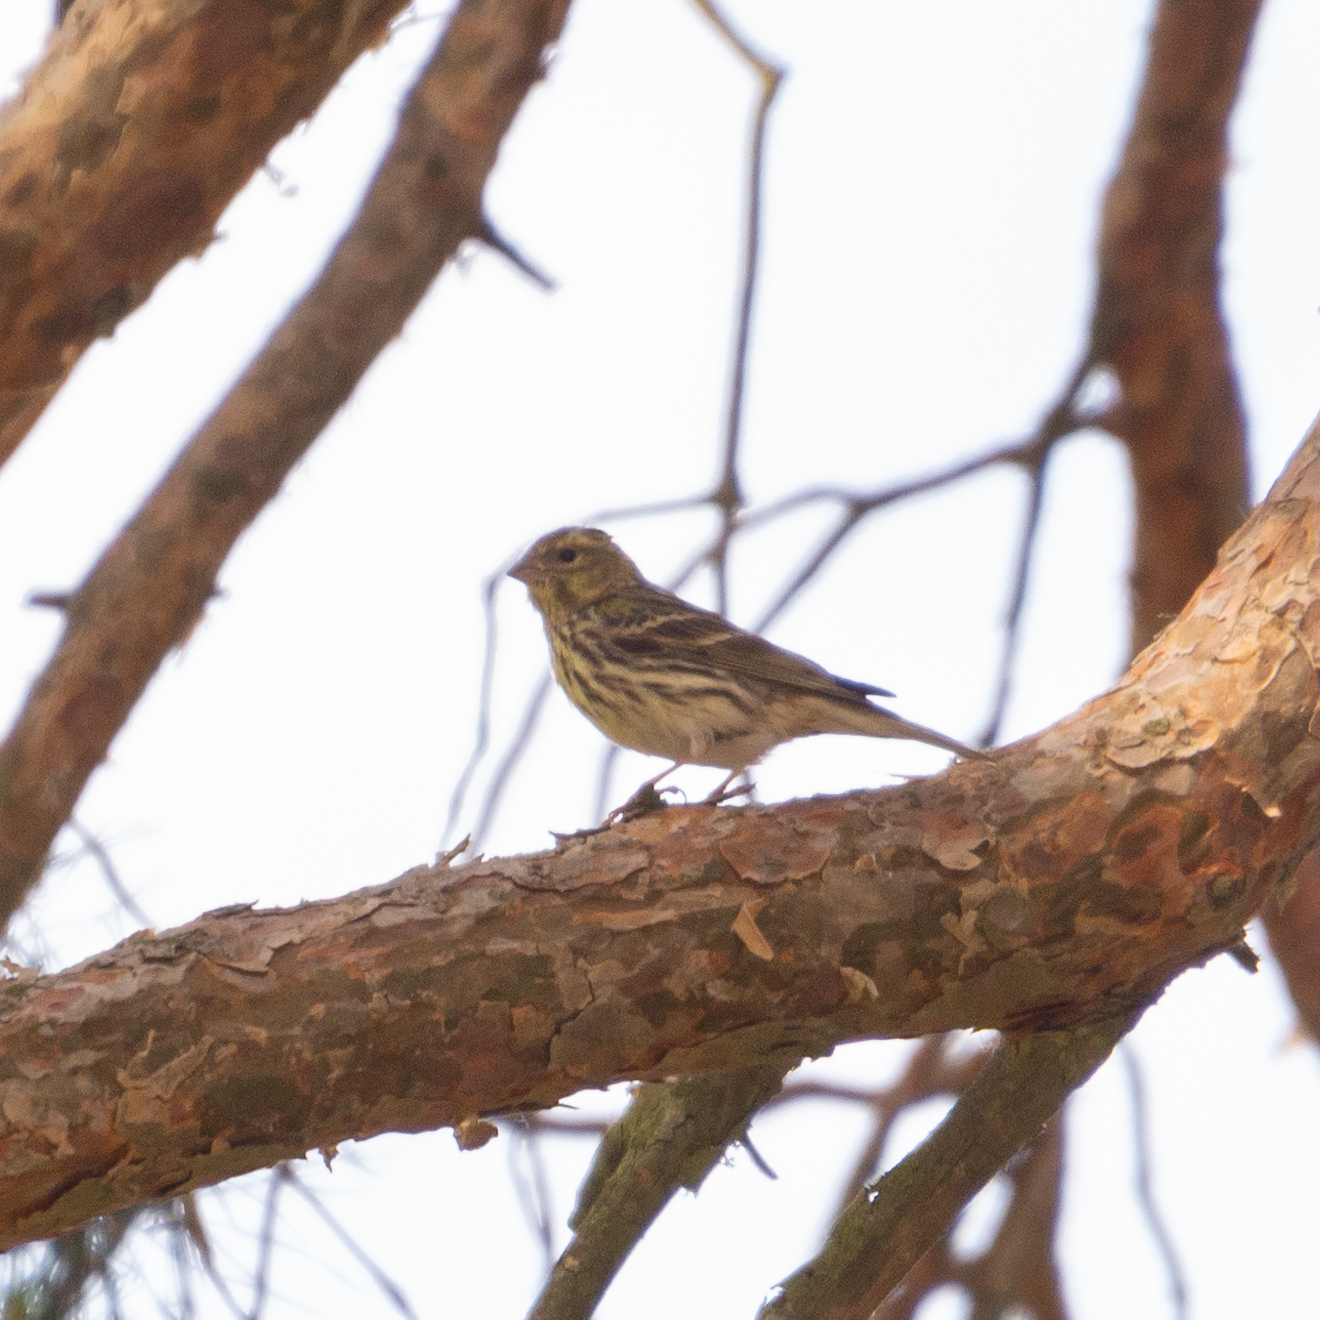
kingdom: Animalia
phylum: Chordata
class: Aves
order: Passeriformes
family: Fringillidae
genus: Serinus
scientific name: Serinus serinus
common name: European serin
